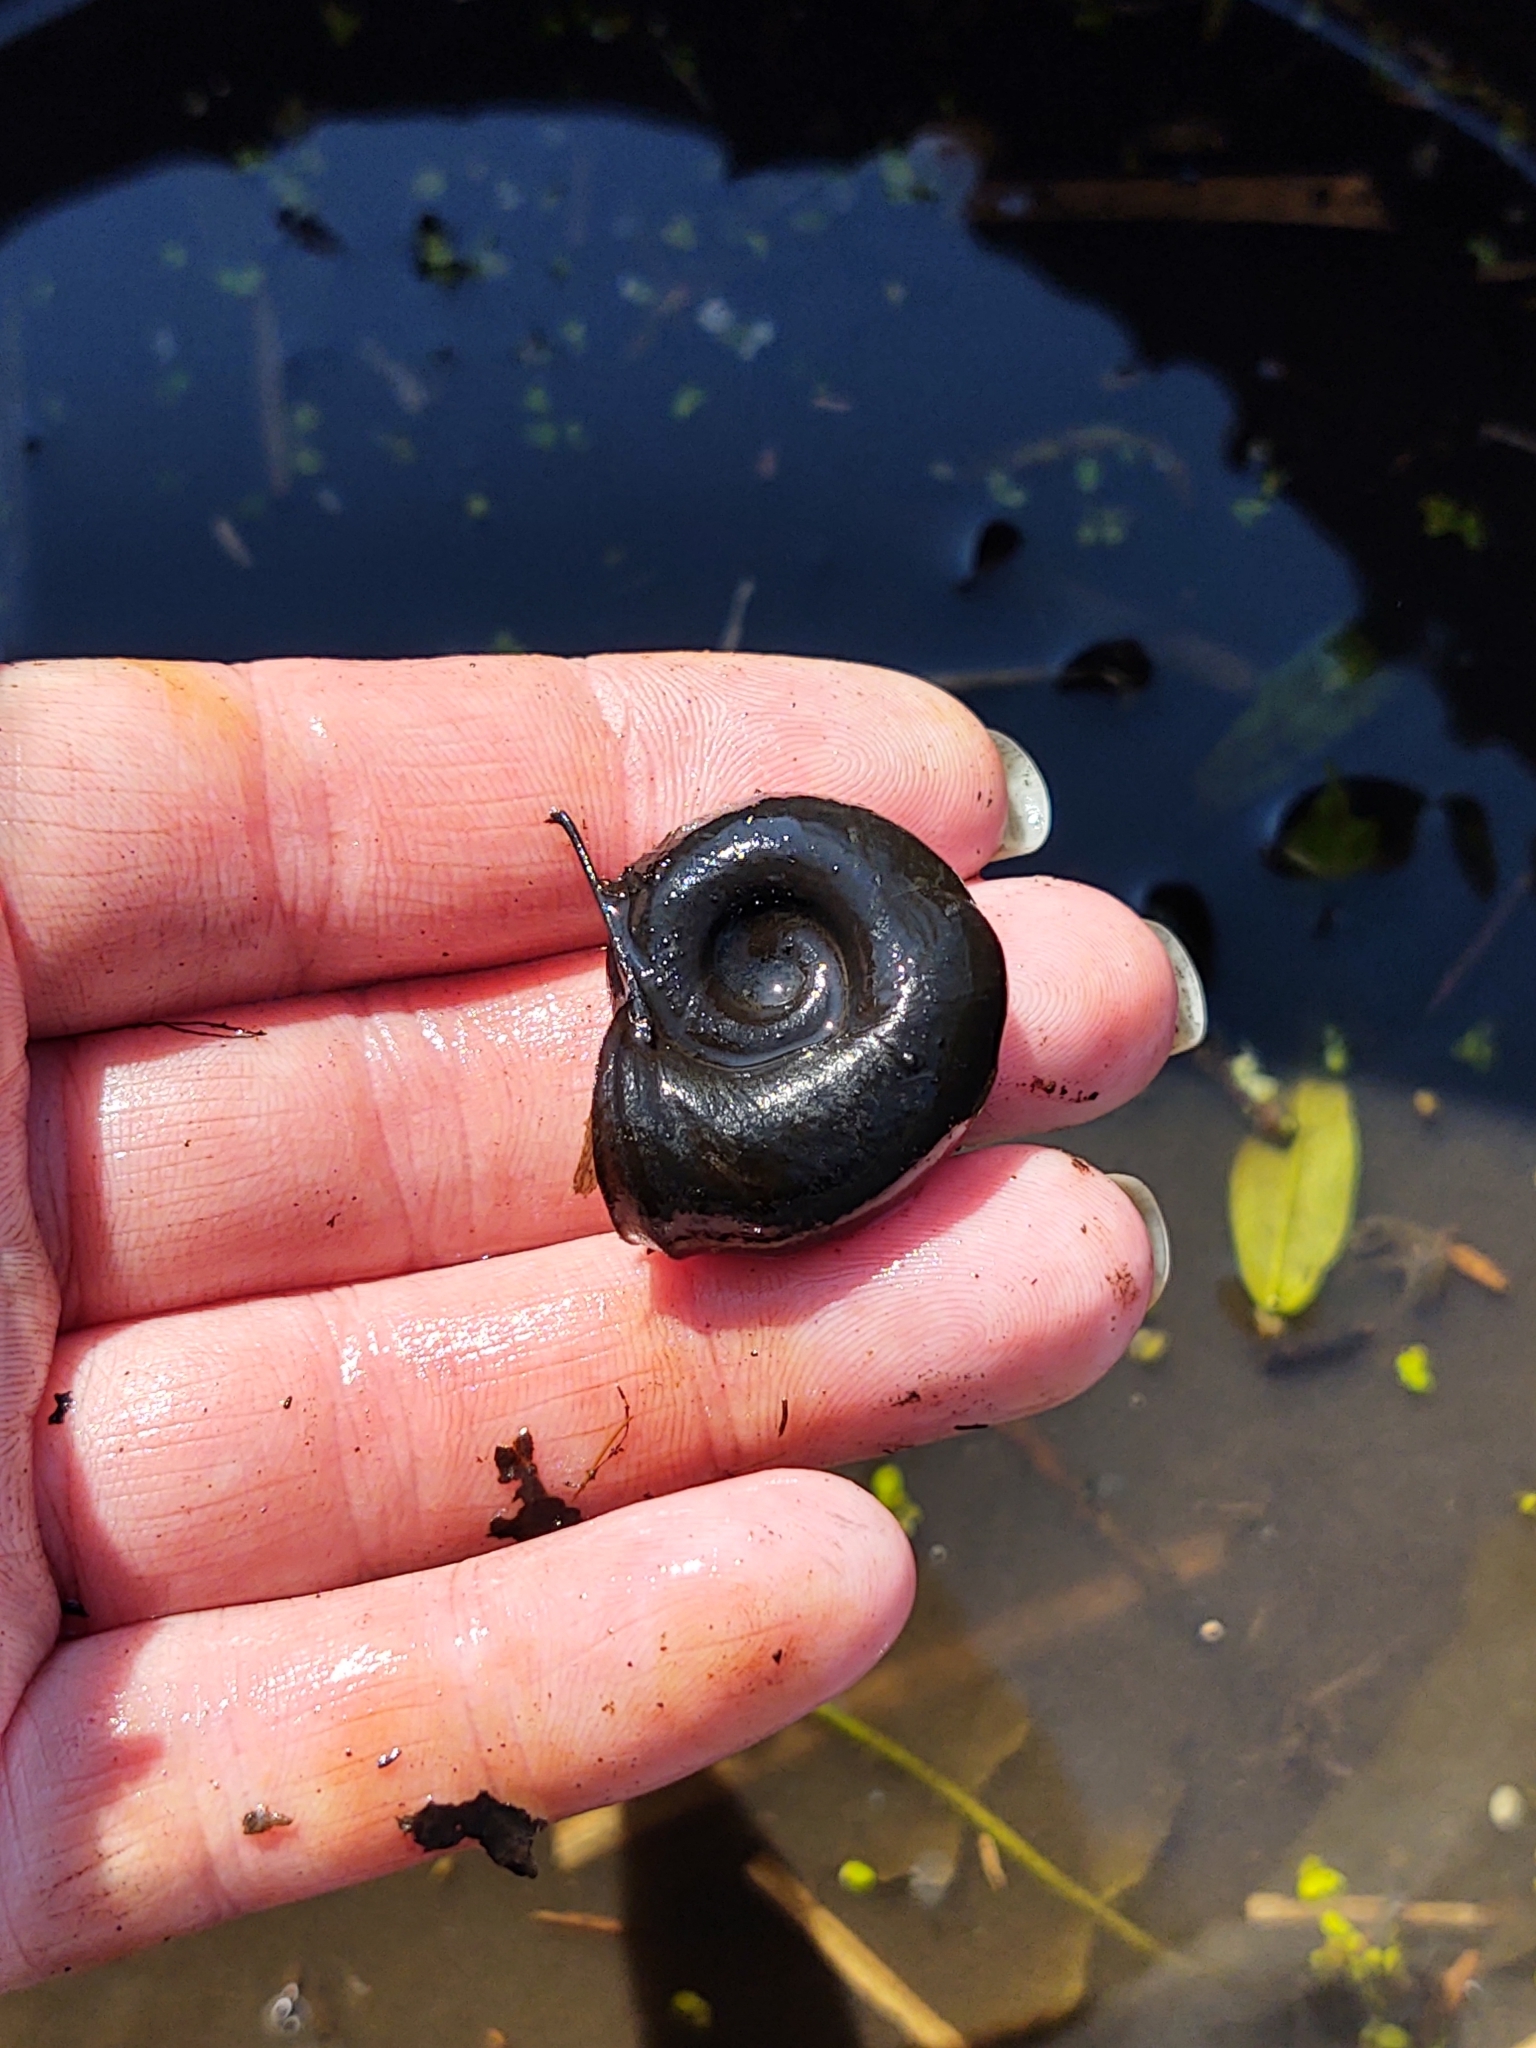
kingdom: Animalia
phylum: Mollusca
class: Gastropoda
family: Planorbidae
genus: Planorbarius
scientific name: Planorbarius corneus
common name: Great ramshorn
